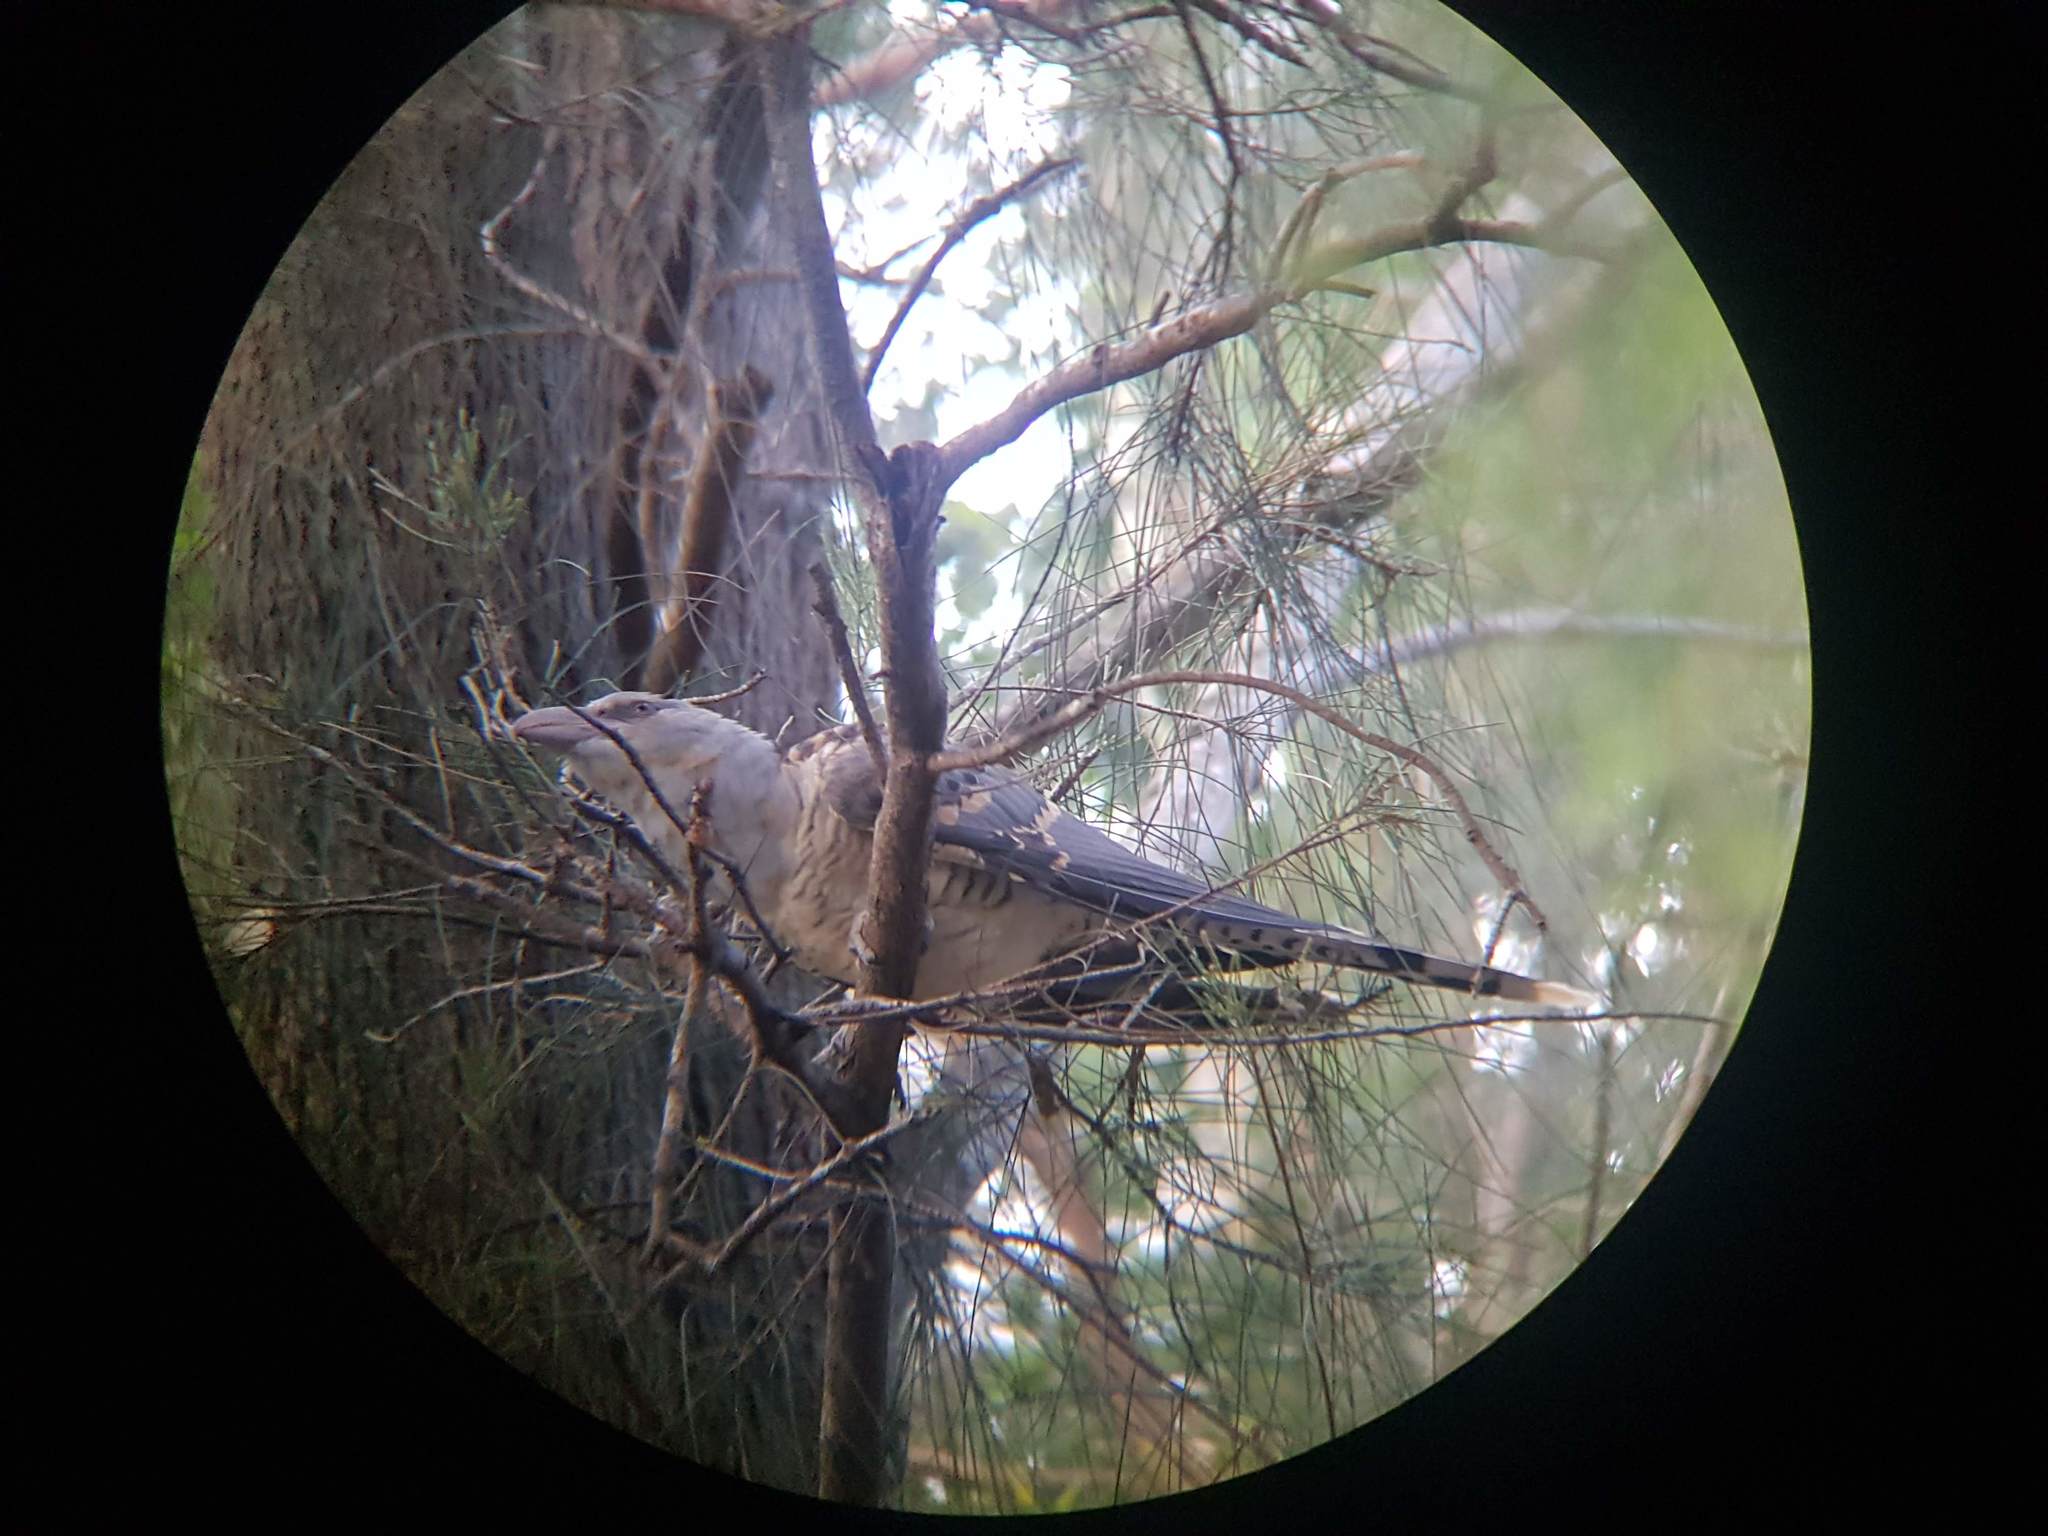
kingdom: Animalia
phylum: Chordata
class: Aves
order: Cuculiformes
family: Cuculidae
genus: Scythrops
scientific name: Scythrops novaehollandiae
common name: Channel-billed cuckoo
